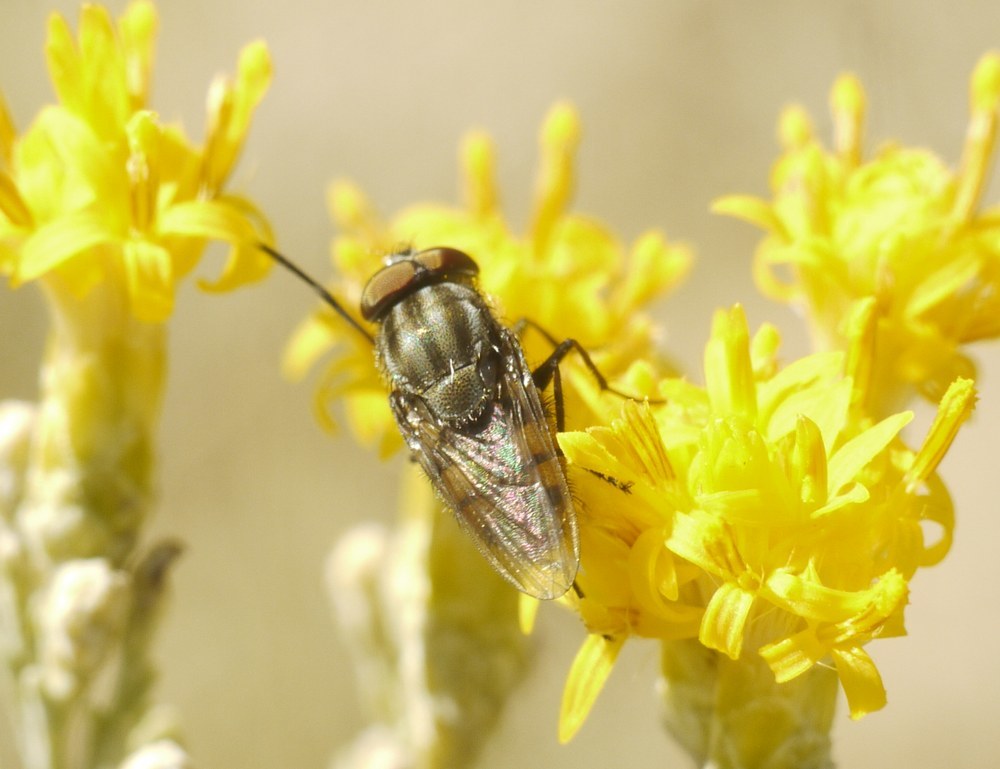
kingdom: Animalia
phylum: Arthropoda
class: Insecta
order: Diptera
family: Calliphoridae
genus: Stomorhina
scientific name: Stomorhina lunata
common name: Locust blowfly
